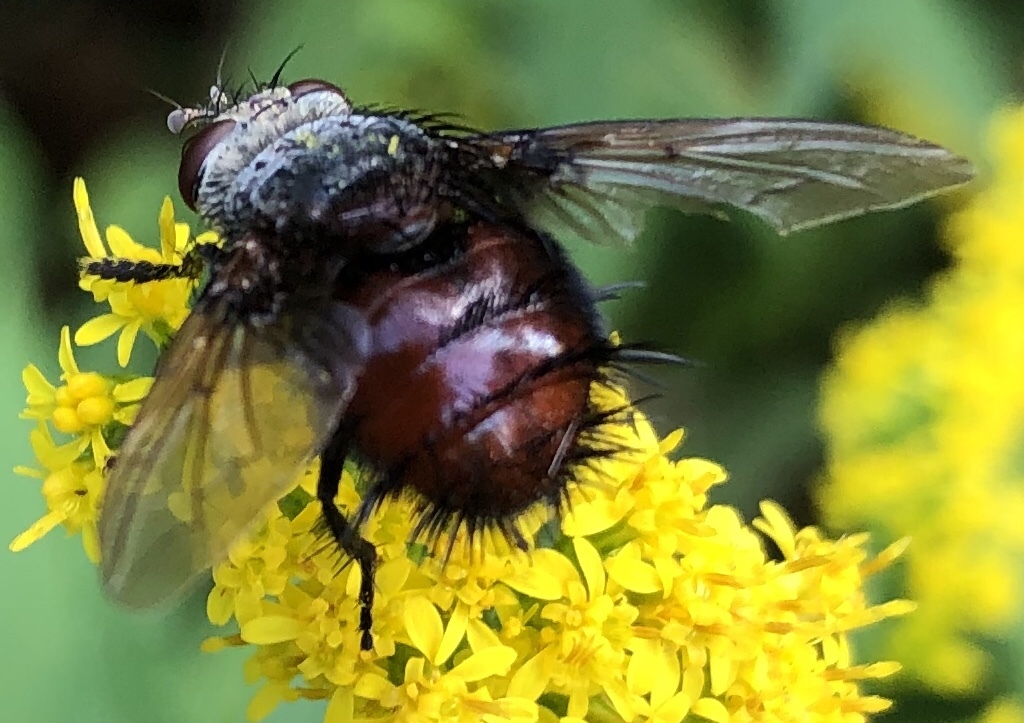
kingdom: Animalia
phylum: Arthropoda
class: Insecta
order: Diptera
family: Tachinidae
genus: Juriniopsis
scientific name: Juriniopsis adusta
